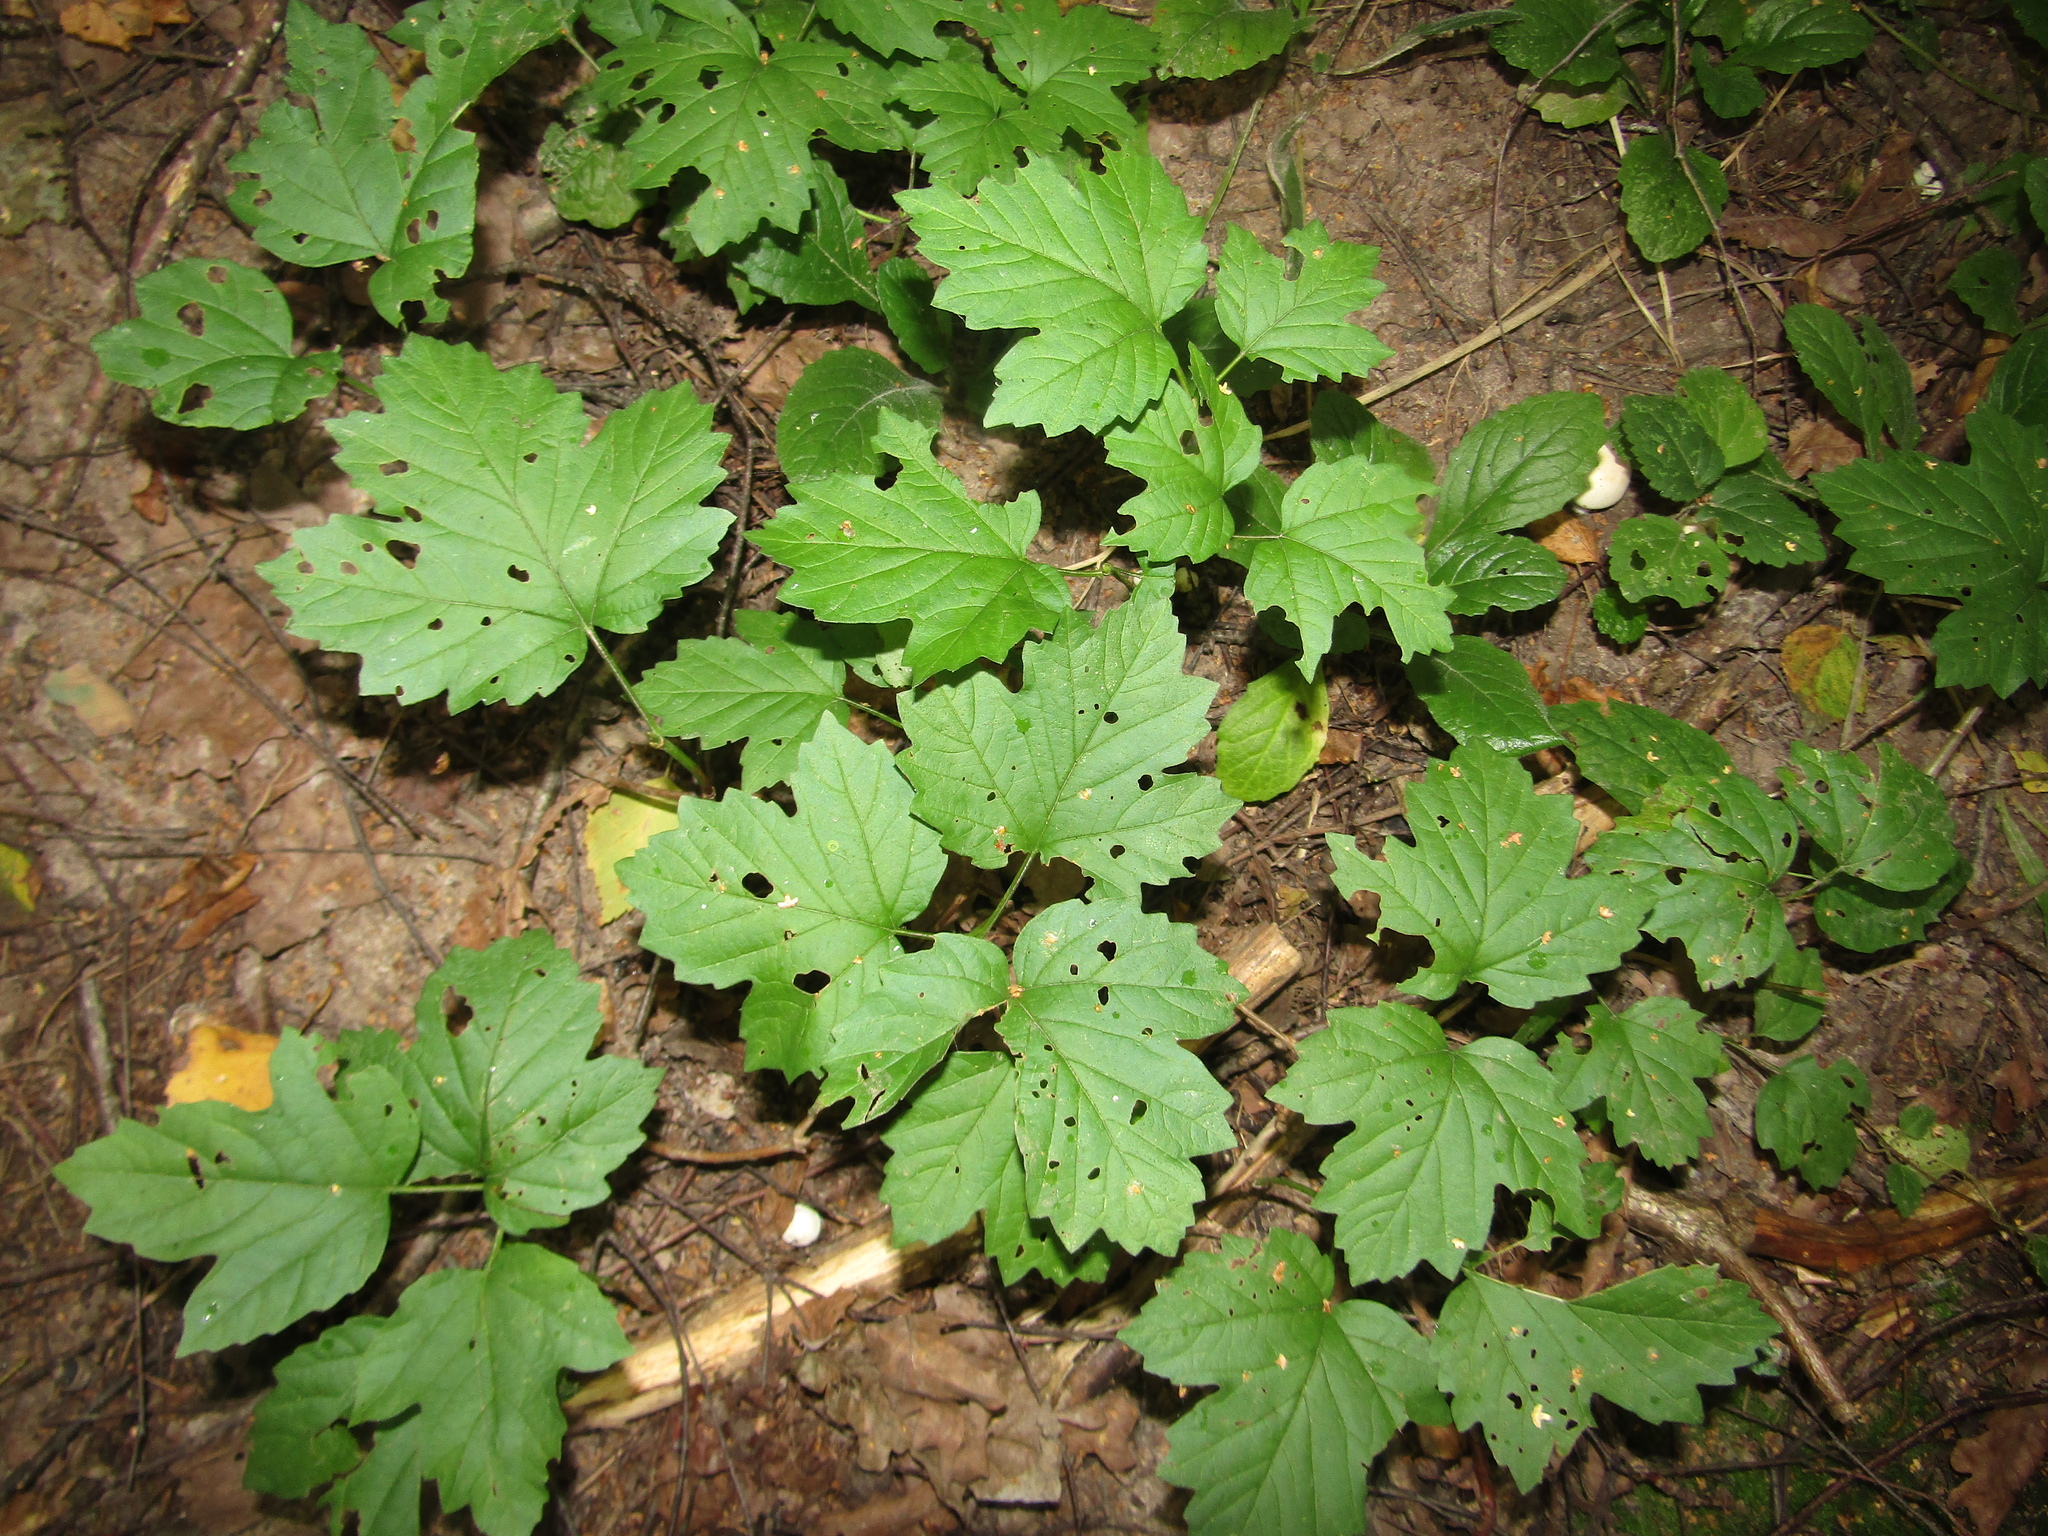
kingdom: Plantae
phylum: Tracheophyta
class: Magnoliopsida
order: Dipsacales
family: Viburnaceae
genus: Viburnum
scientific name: Viburnum opulus
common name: Guelder-rose
